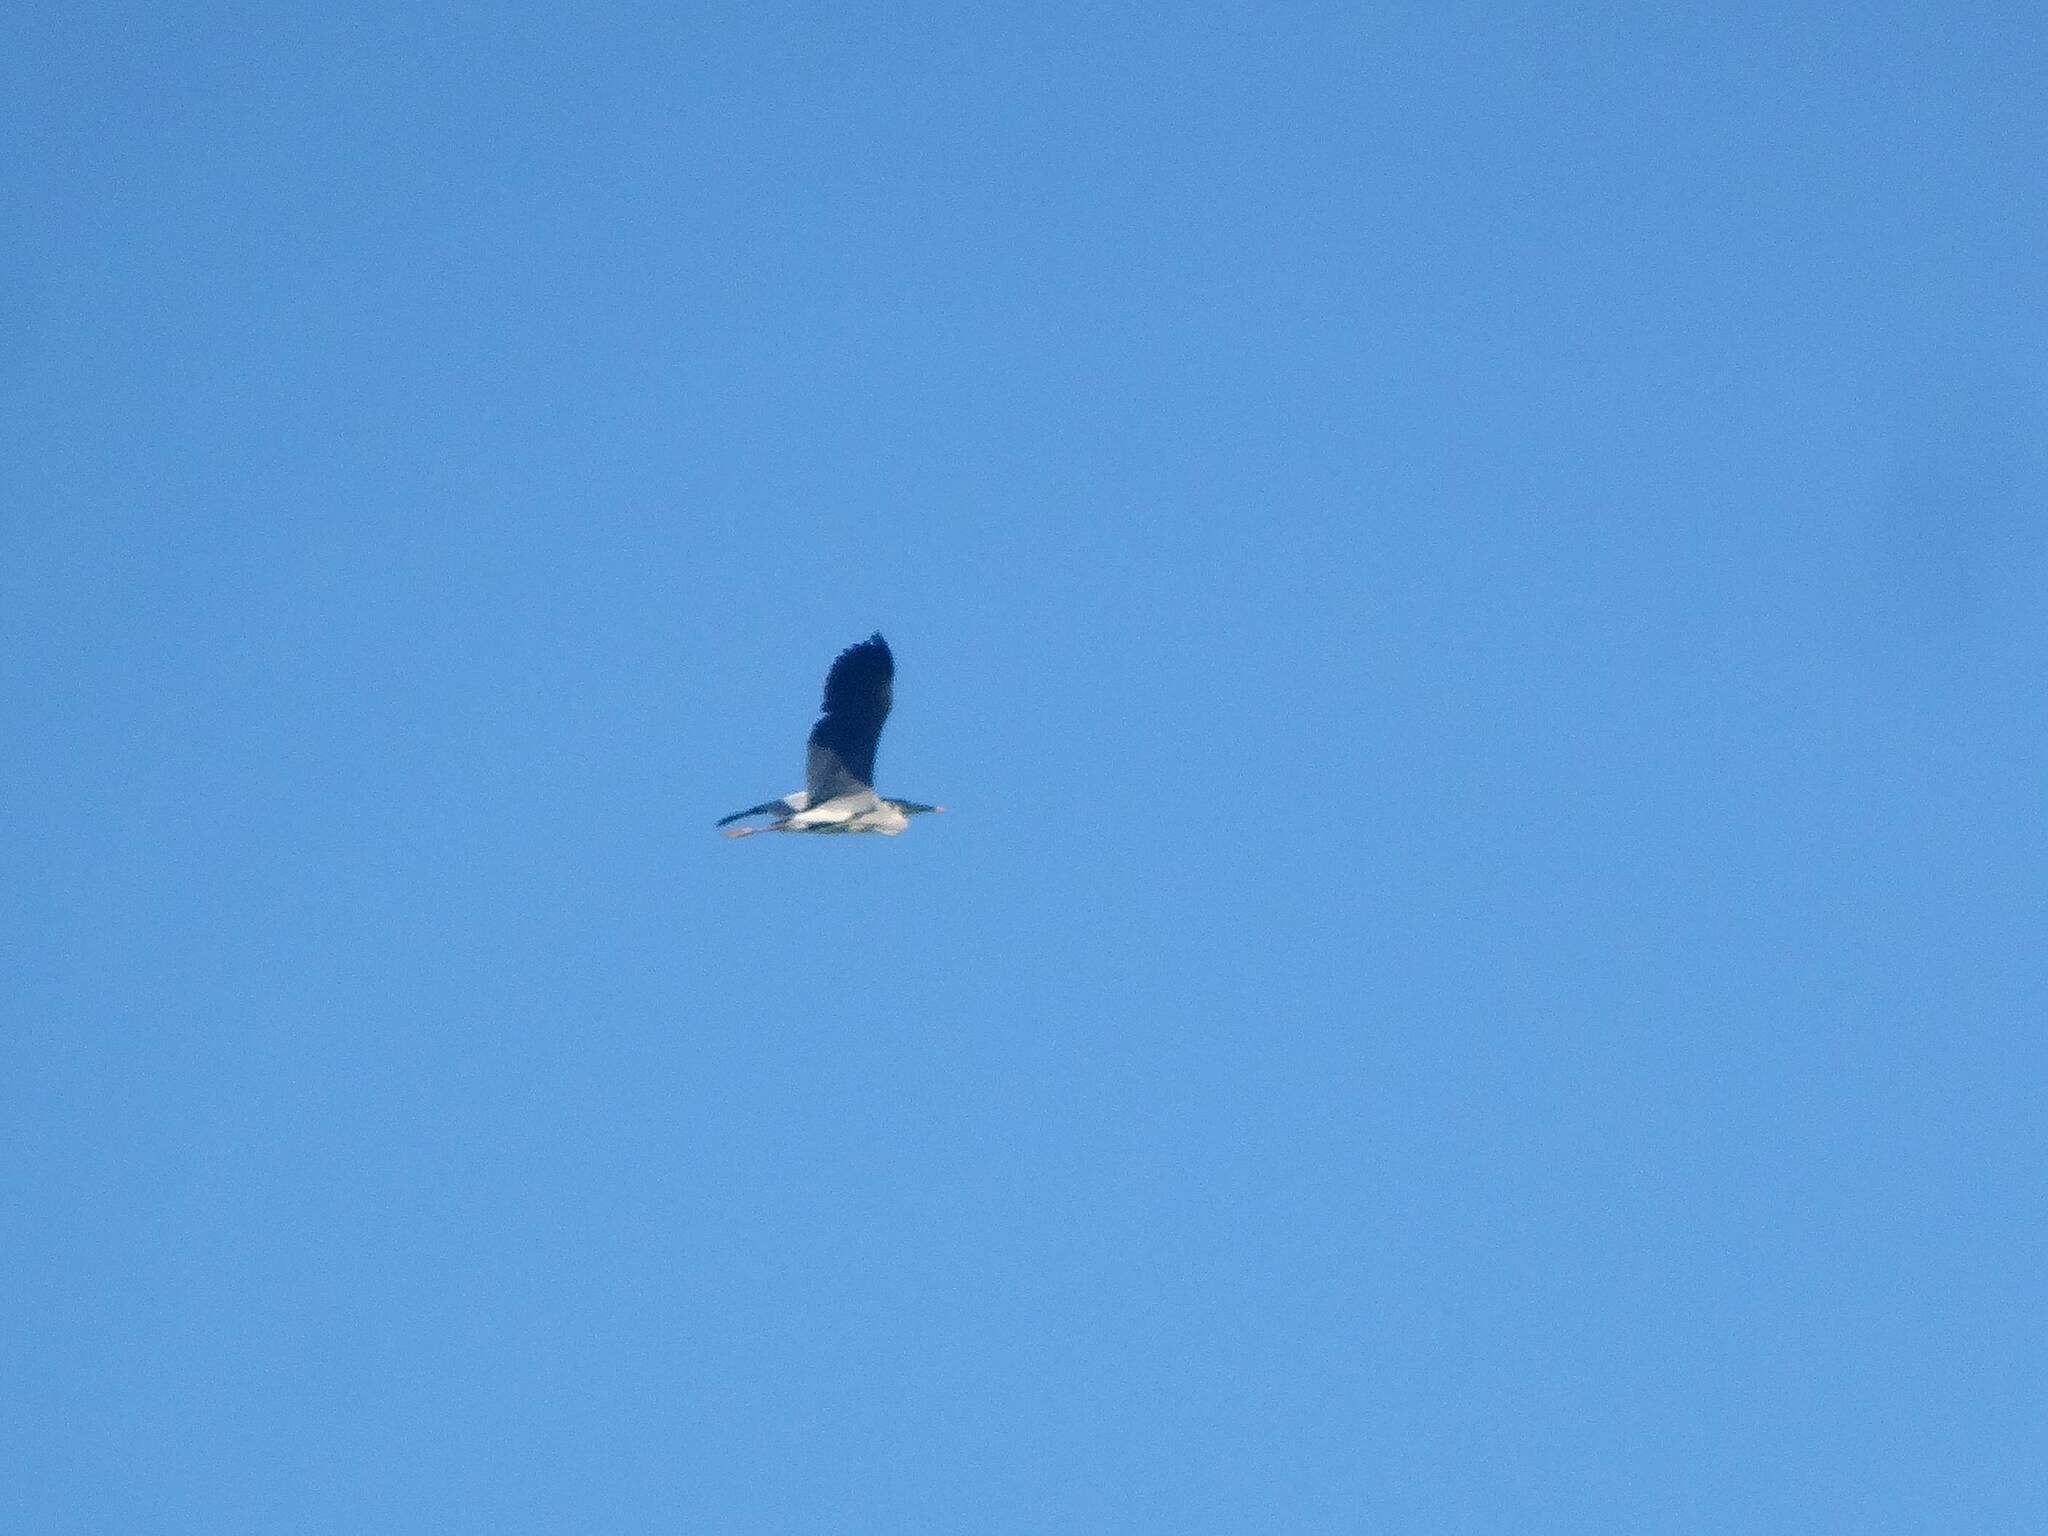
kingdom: Animalia
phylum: Chordata
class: Aves
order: Pelecaniformes
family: Ardeidae
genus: Ardea
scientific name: Ardea cinerea
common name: Grey heron
